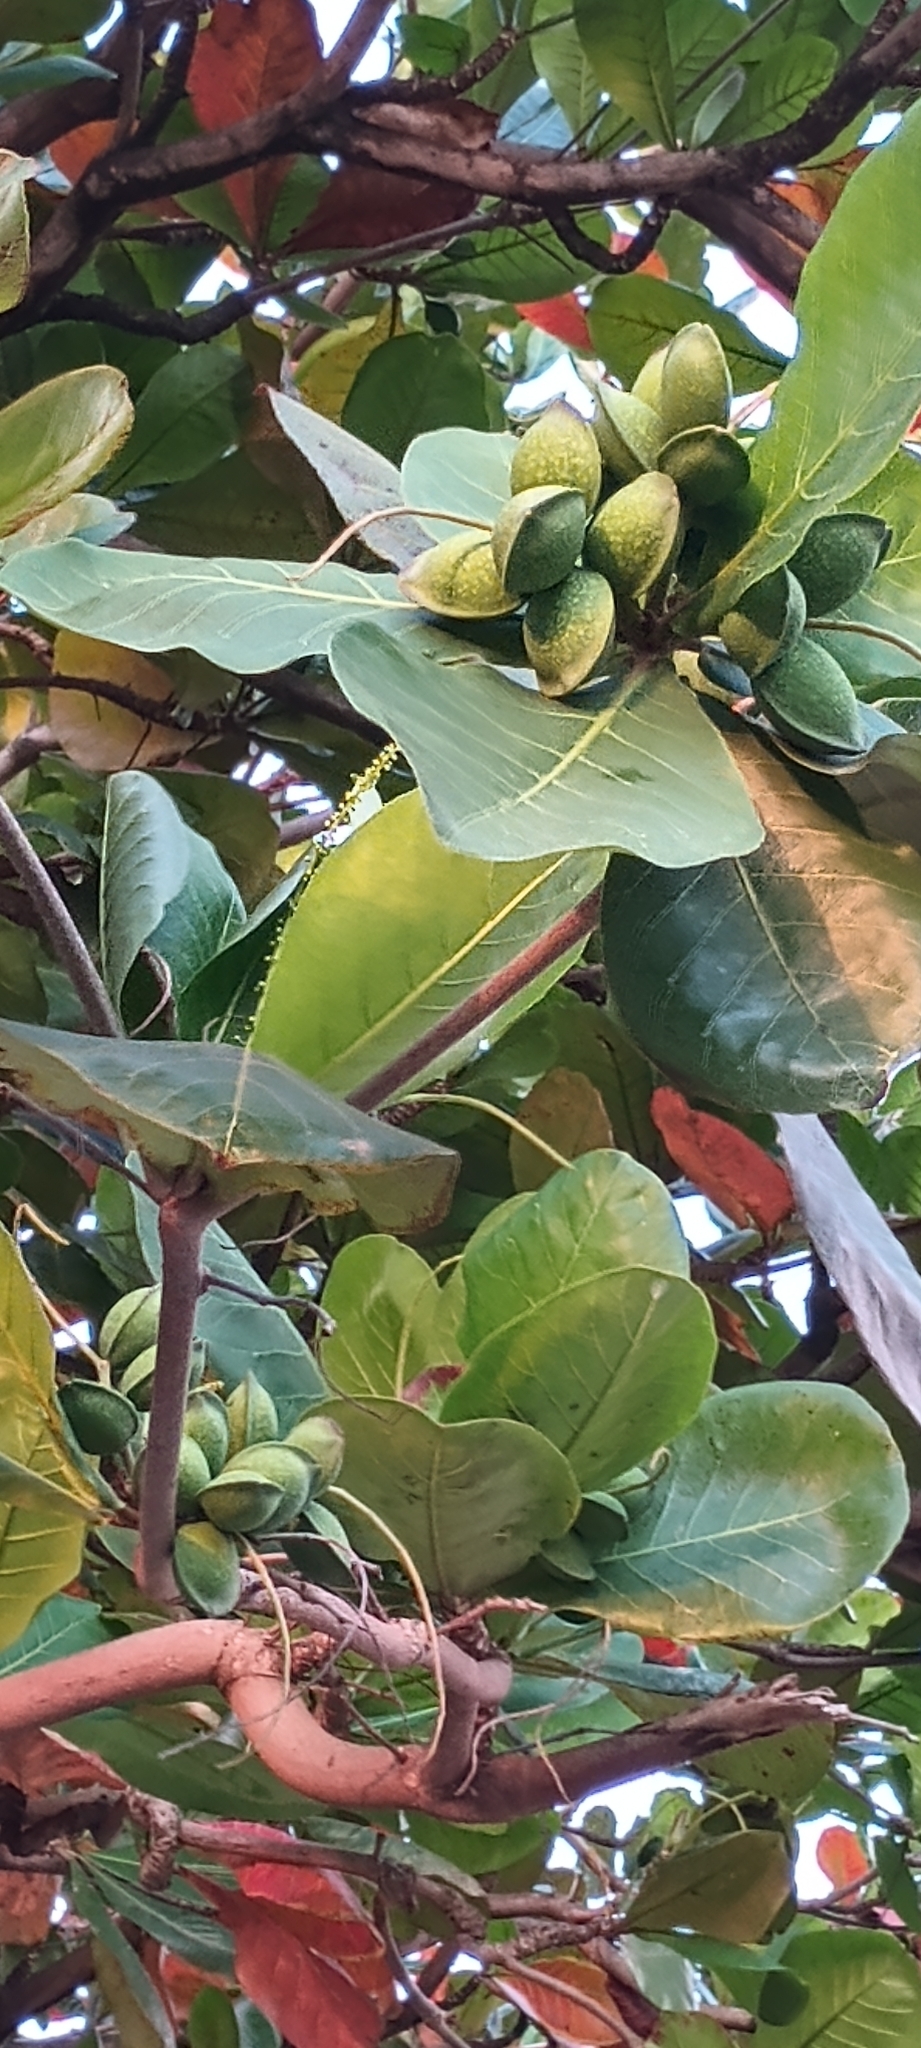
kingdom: Plantae
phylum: Tracheophyta
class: Magnoliopsida
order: Myrtales
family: Combretaceae
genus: Terminalia
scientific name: Terminalia catappa
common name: Tropical almond
